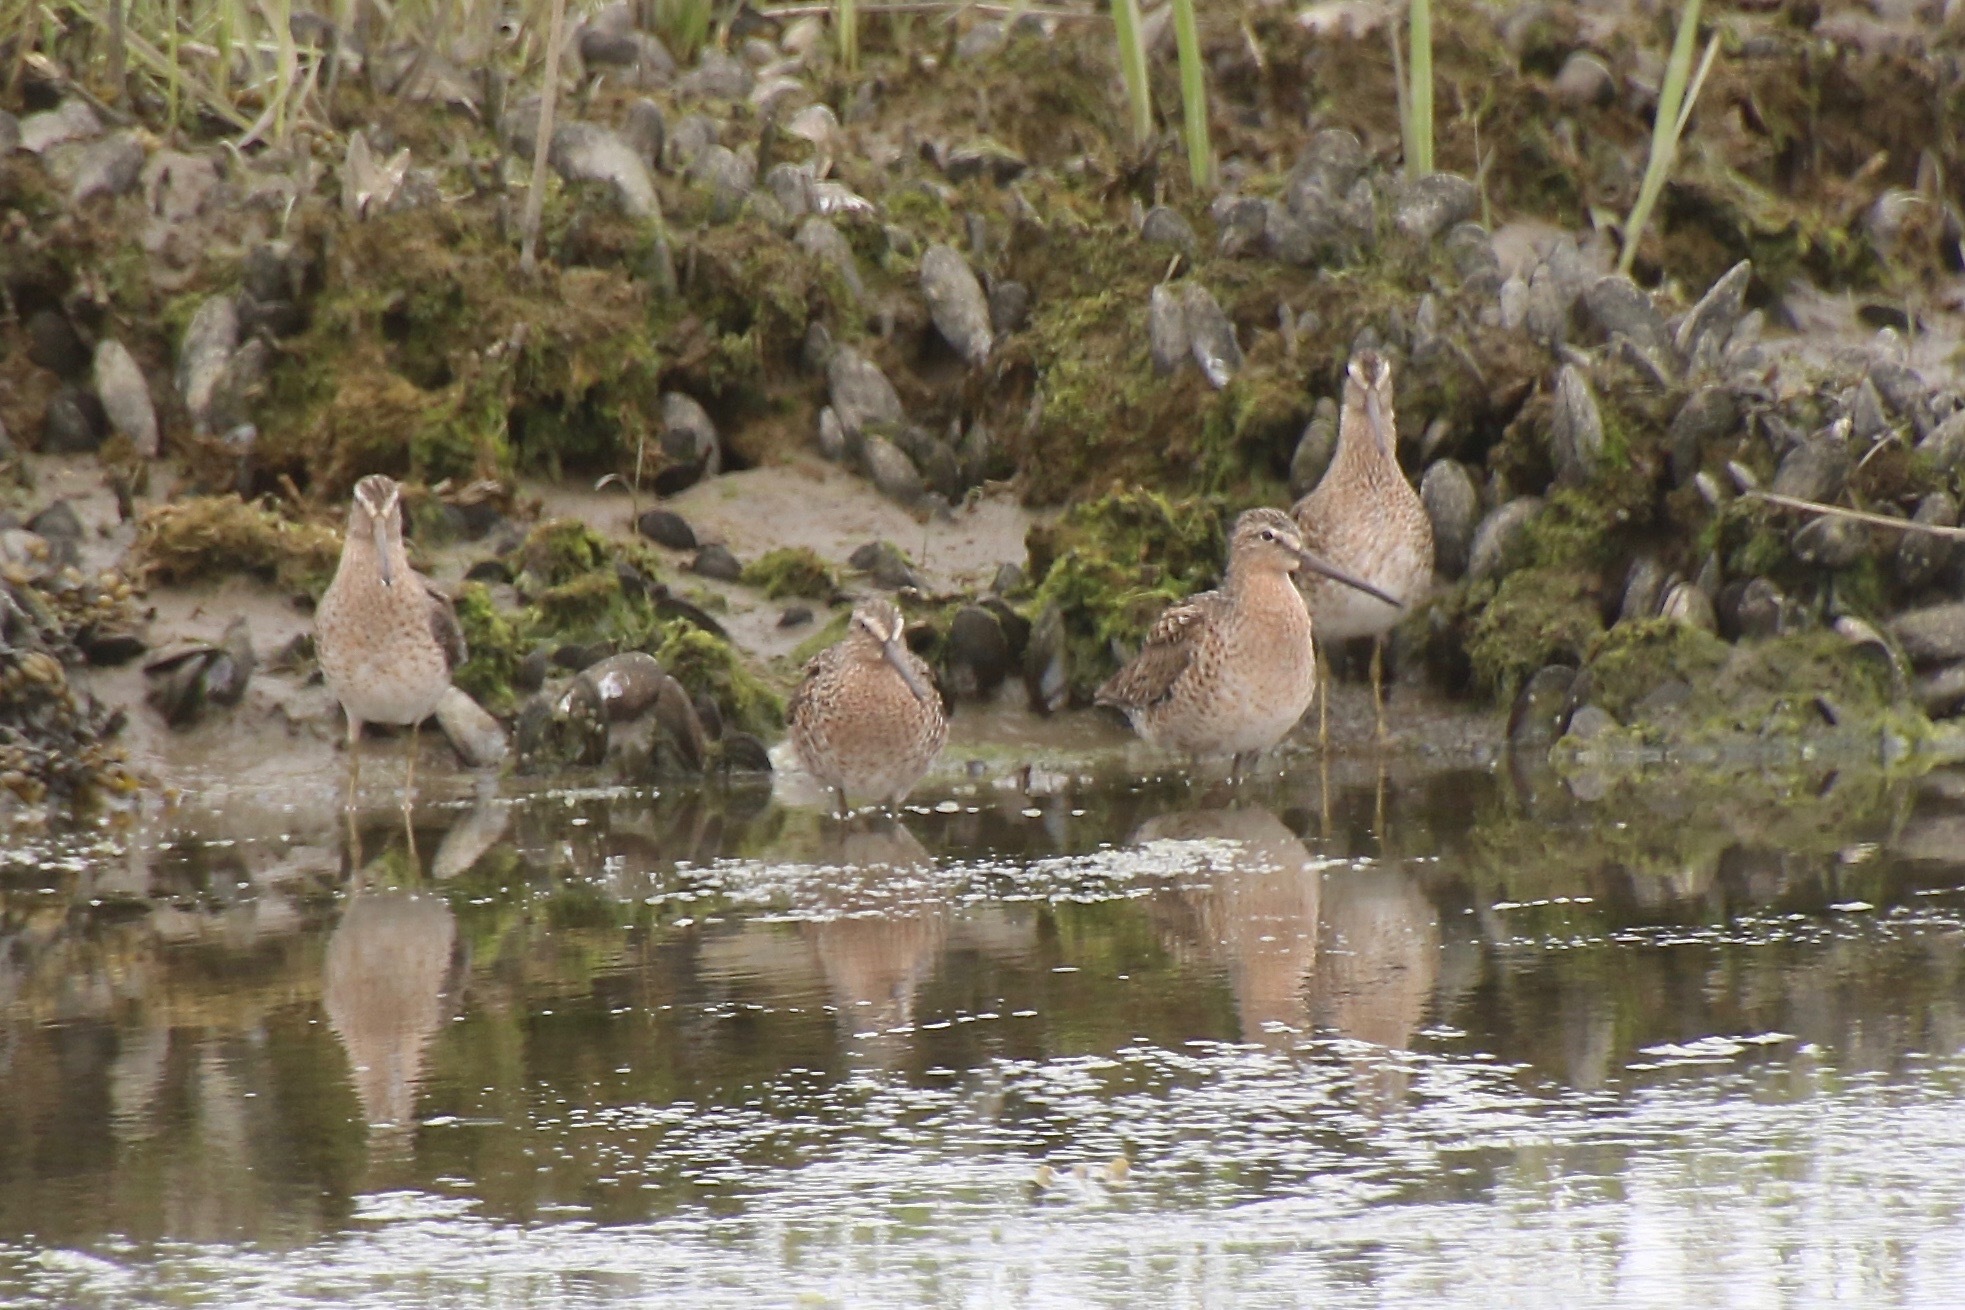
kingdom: Animalia
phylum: Chordata
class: Aves
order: Charadriiformes
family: Scolopacidae
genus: Limnodromus
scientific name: Limnodromus griseus
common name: Short-billed dowitcher
